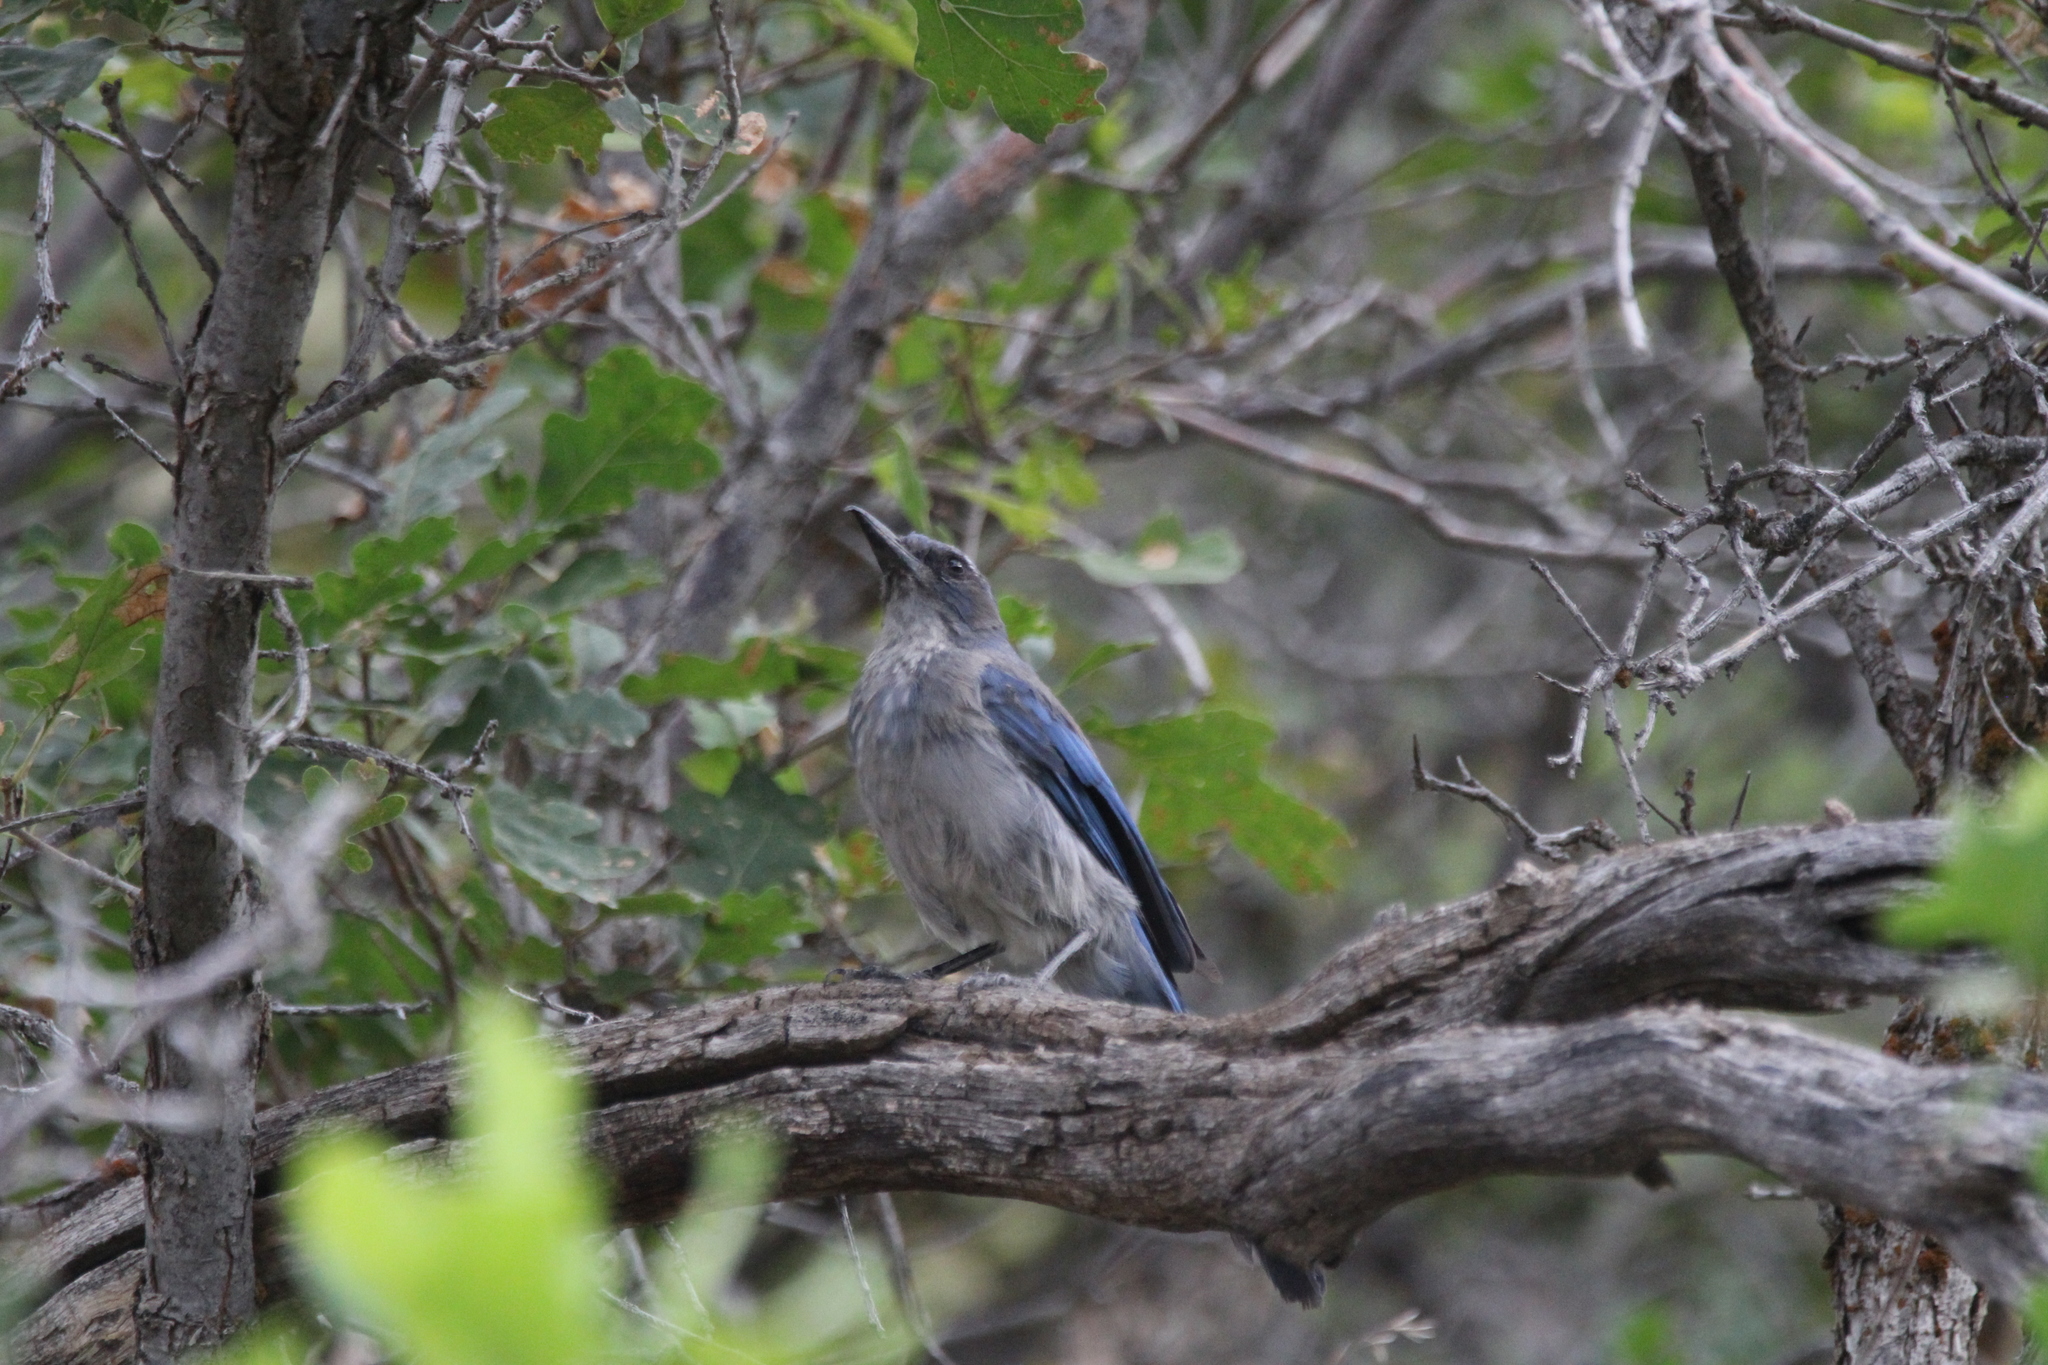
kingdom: Animalia
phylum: Chordata
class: Aves
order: Passeriformes
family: Corvidae
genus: Aphelocoma
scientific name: Aphelocoma woodhouseii
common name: Woodhouse's scrub-jay
